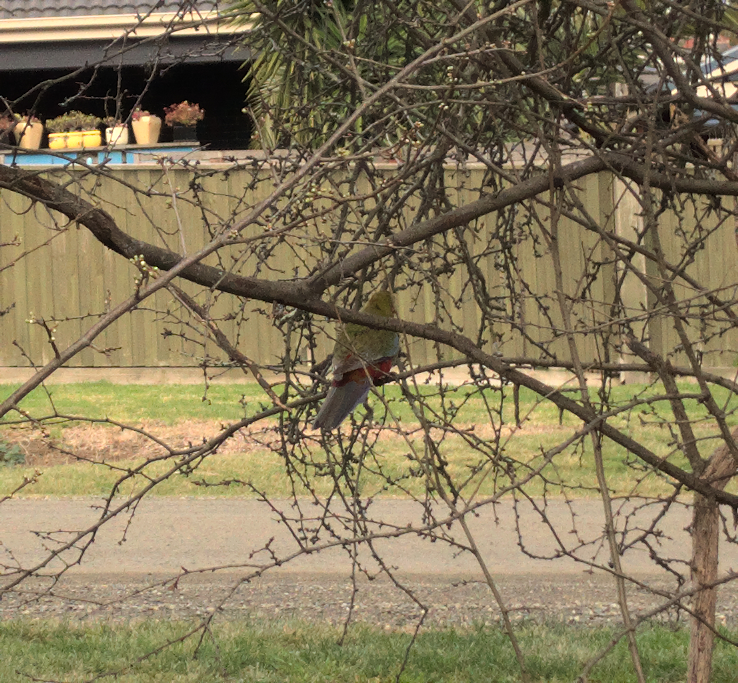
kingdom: Animalia
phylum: Chordata
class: Aves
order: Psittaciformes
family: Psittacidae
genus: Platycercus
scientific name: Platycercus elegans
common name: Crimson rosella
